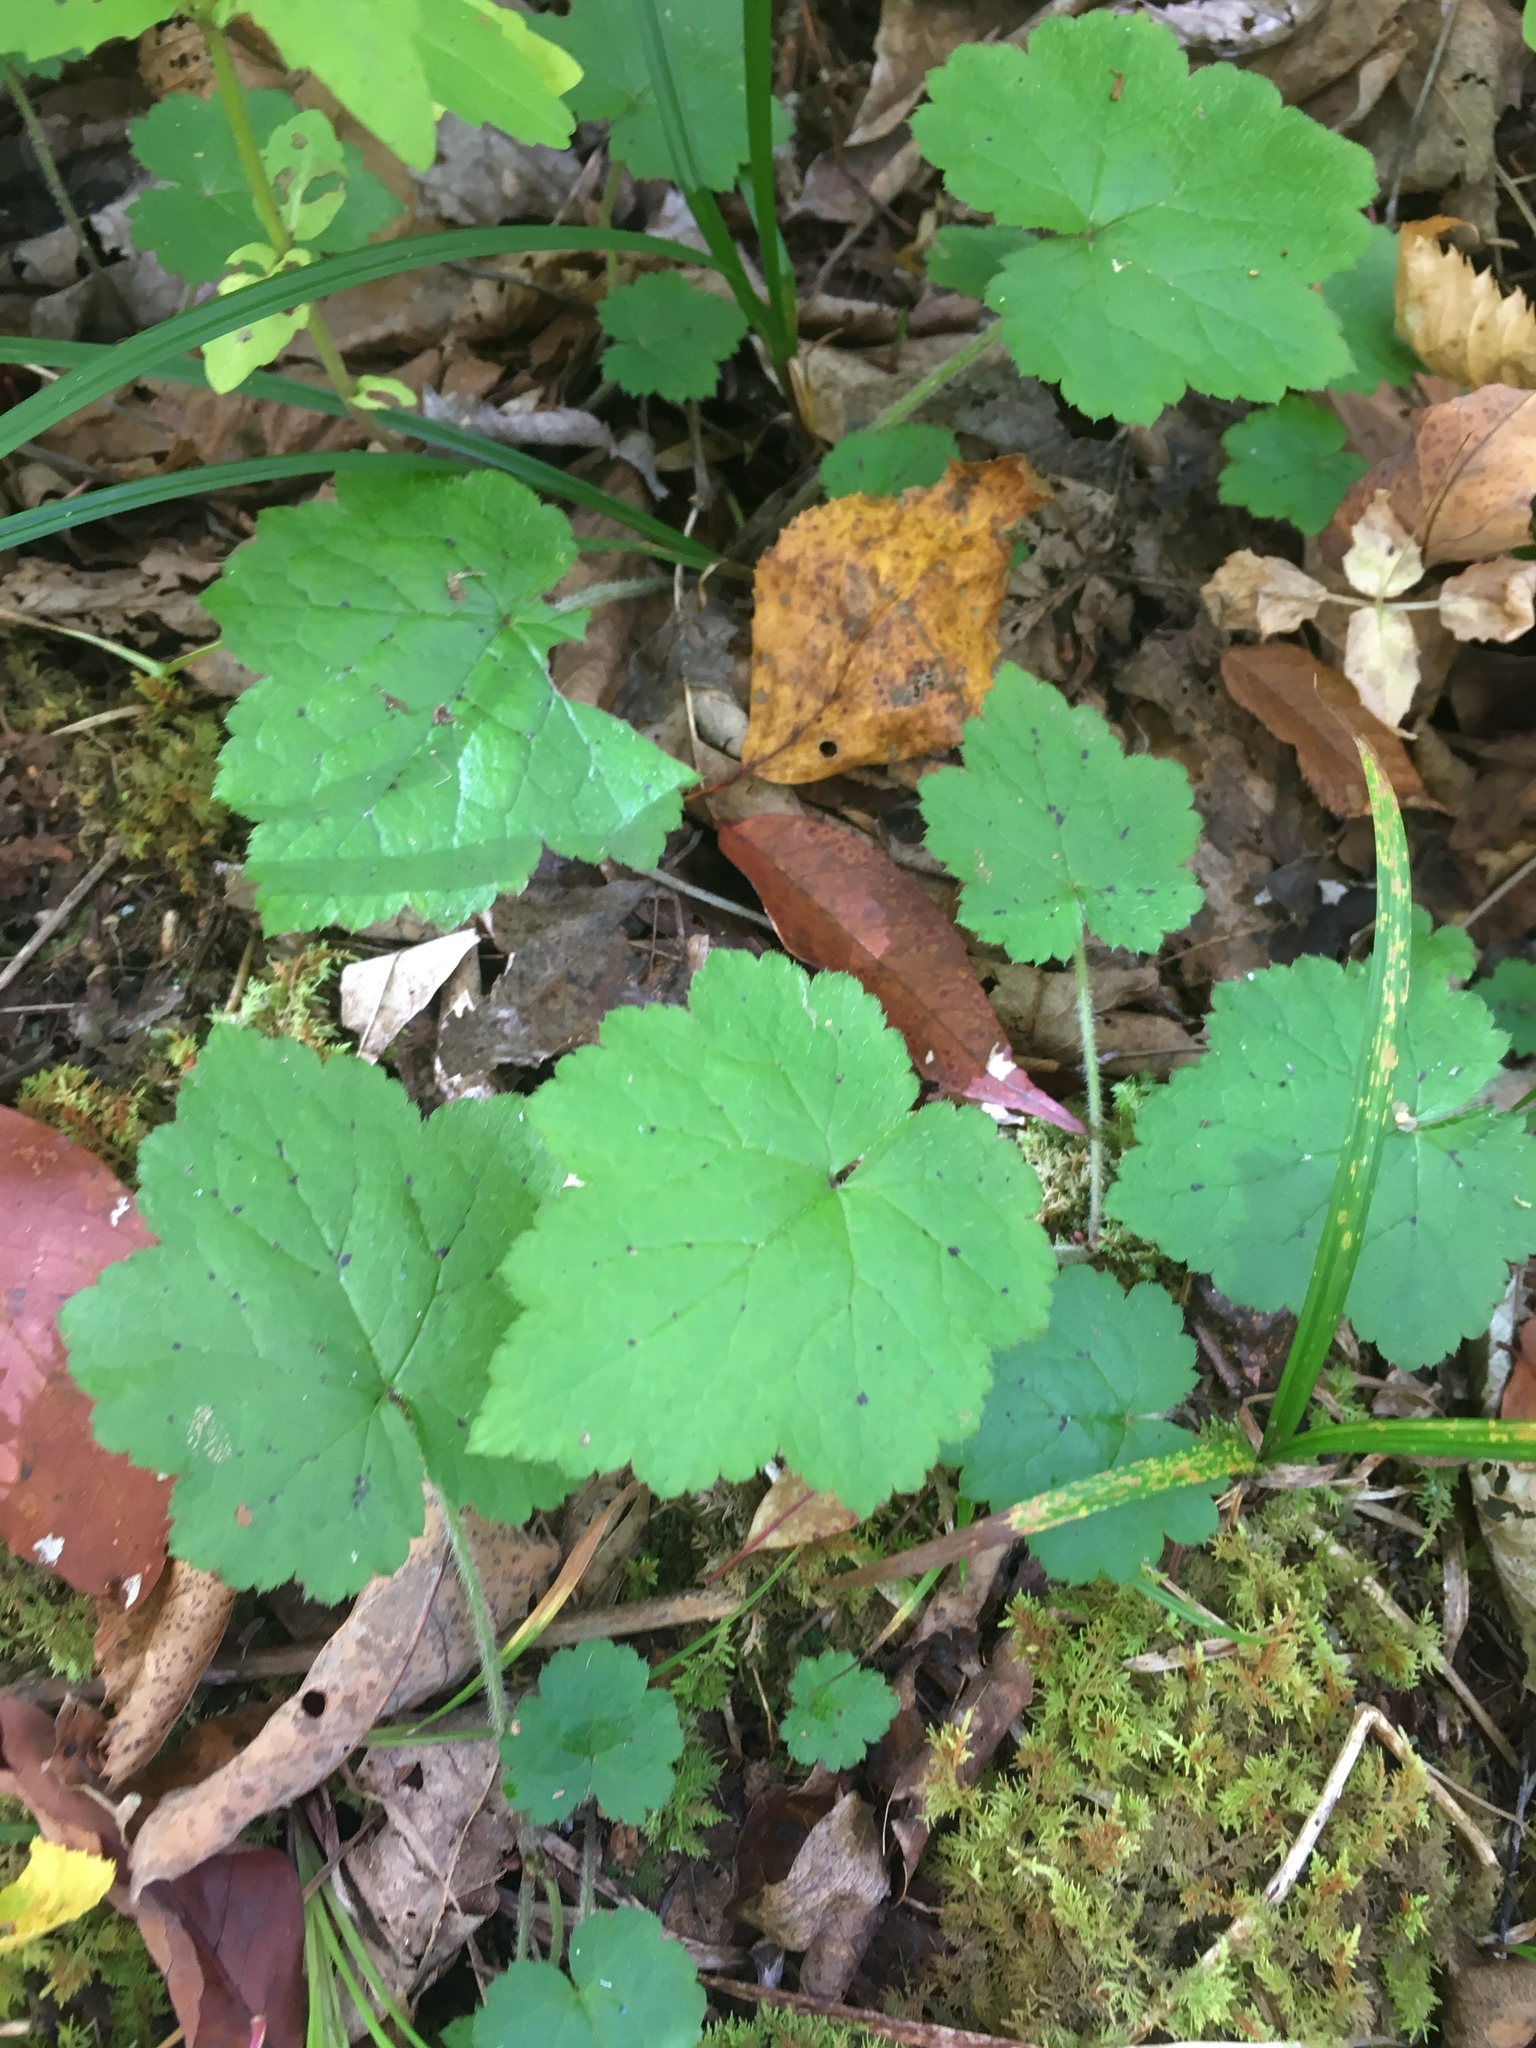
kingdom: Plantae
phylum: Tracheophyta
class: Magnoliopsida
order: Saxifragales
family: Saxifragaceae
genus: Tiarella
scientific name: Tiarella stolonifera
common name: Stoloniferous foamflower
